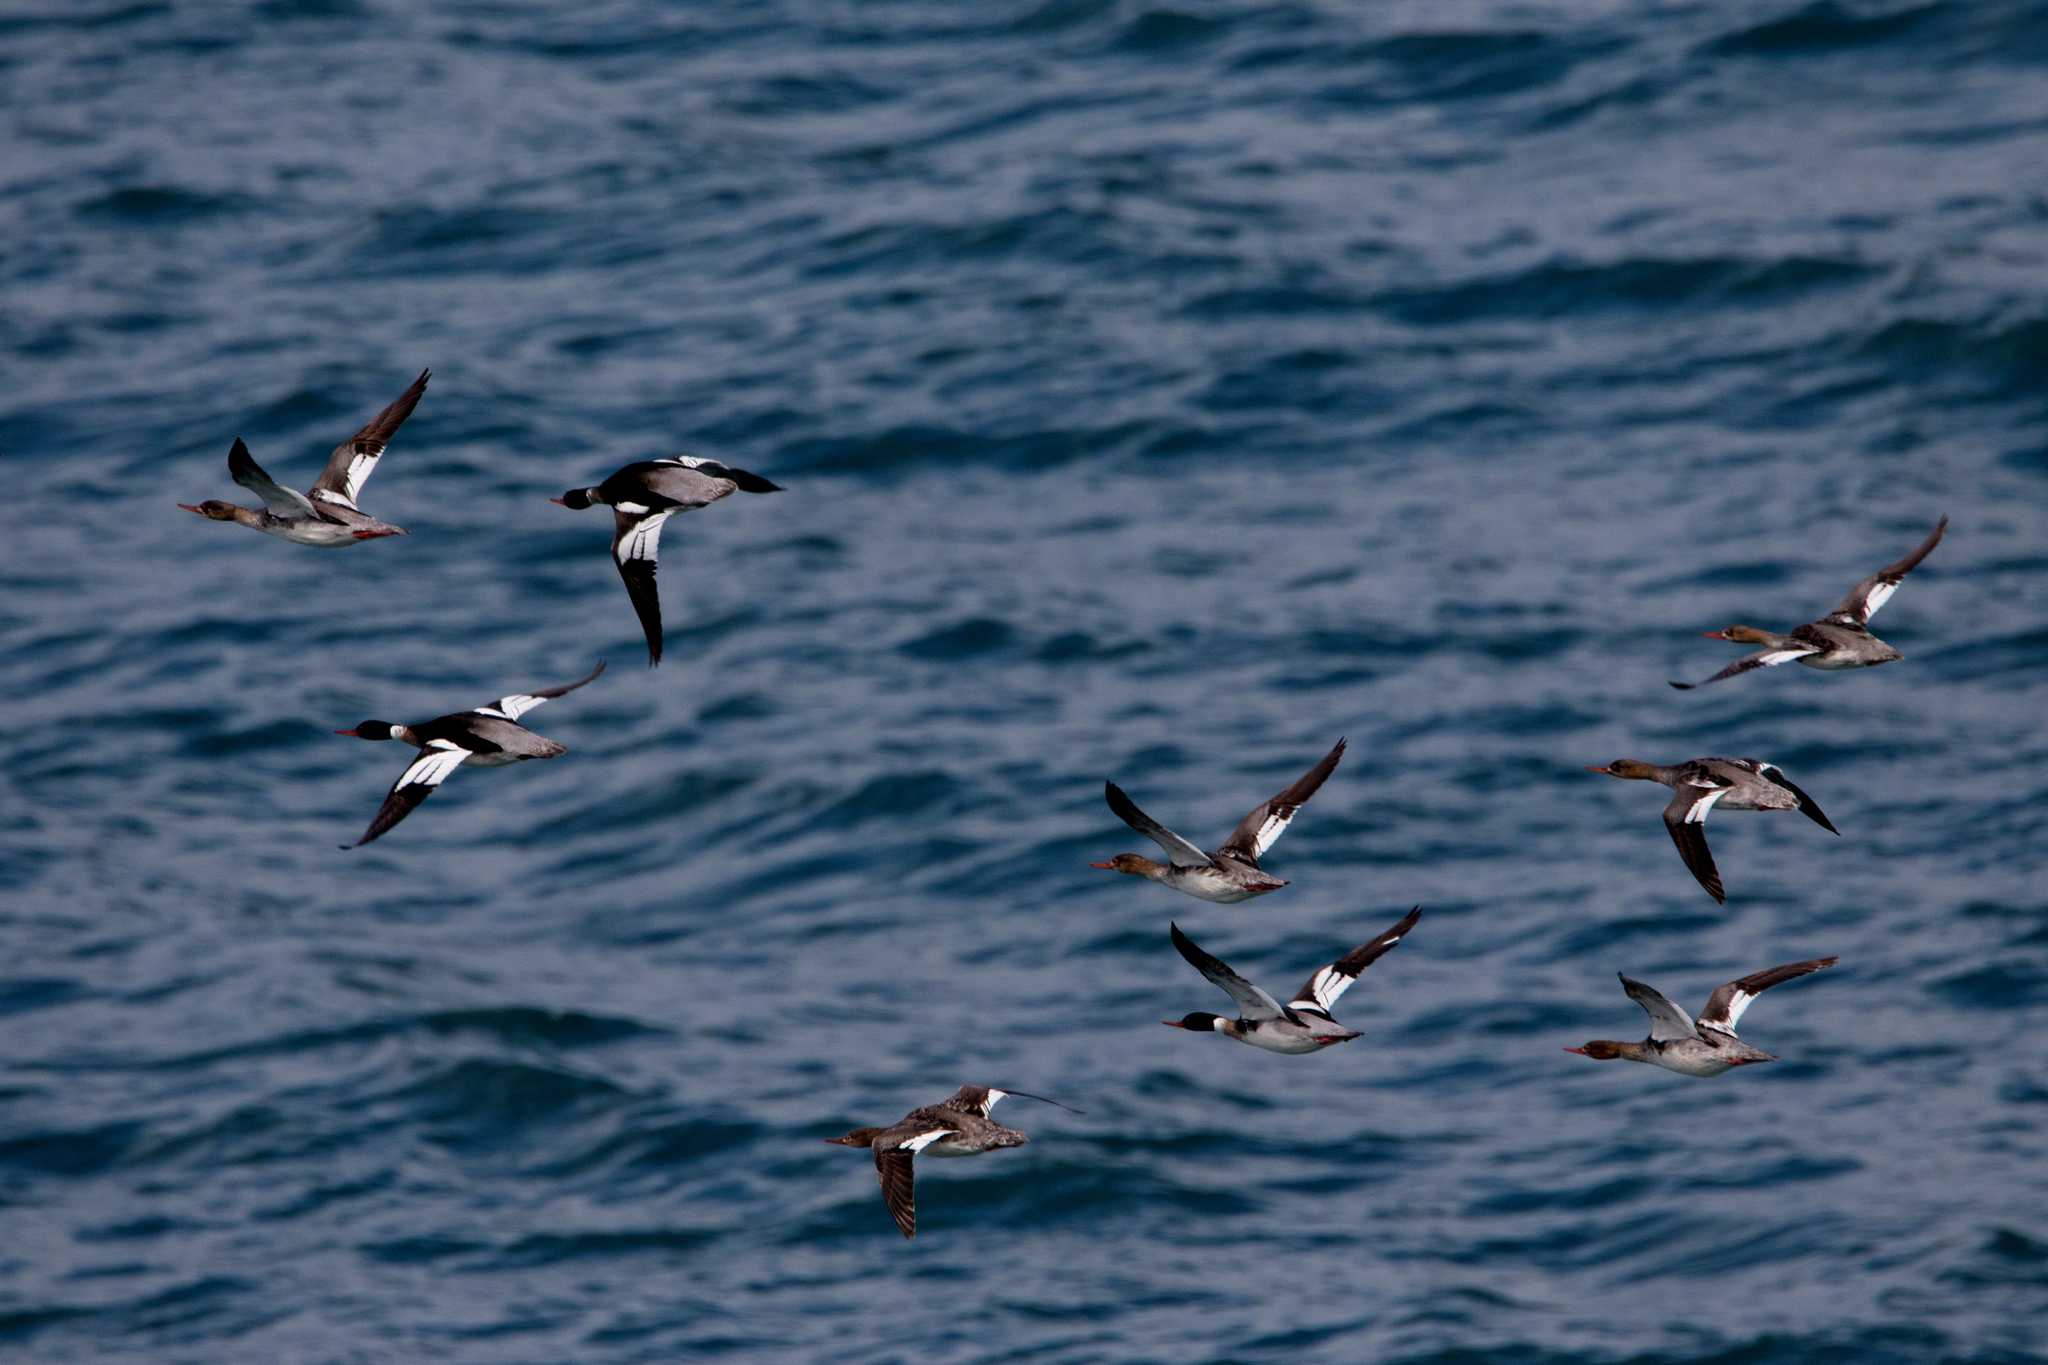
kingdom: Animalia
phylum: Chordata
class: Aves
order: Anseriformes
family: Anatidae
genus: Mergus
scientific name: Mergus serrator
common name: Red-breasted merganser
